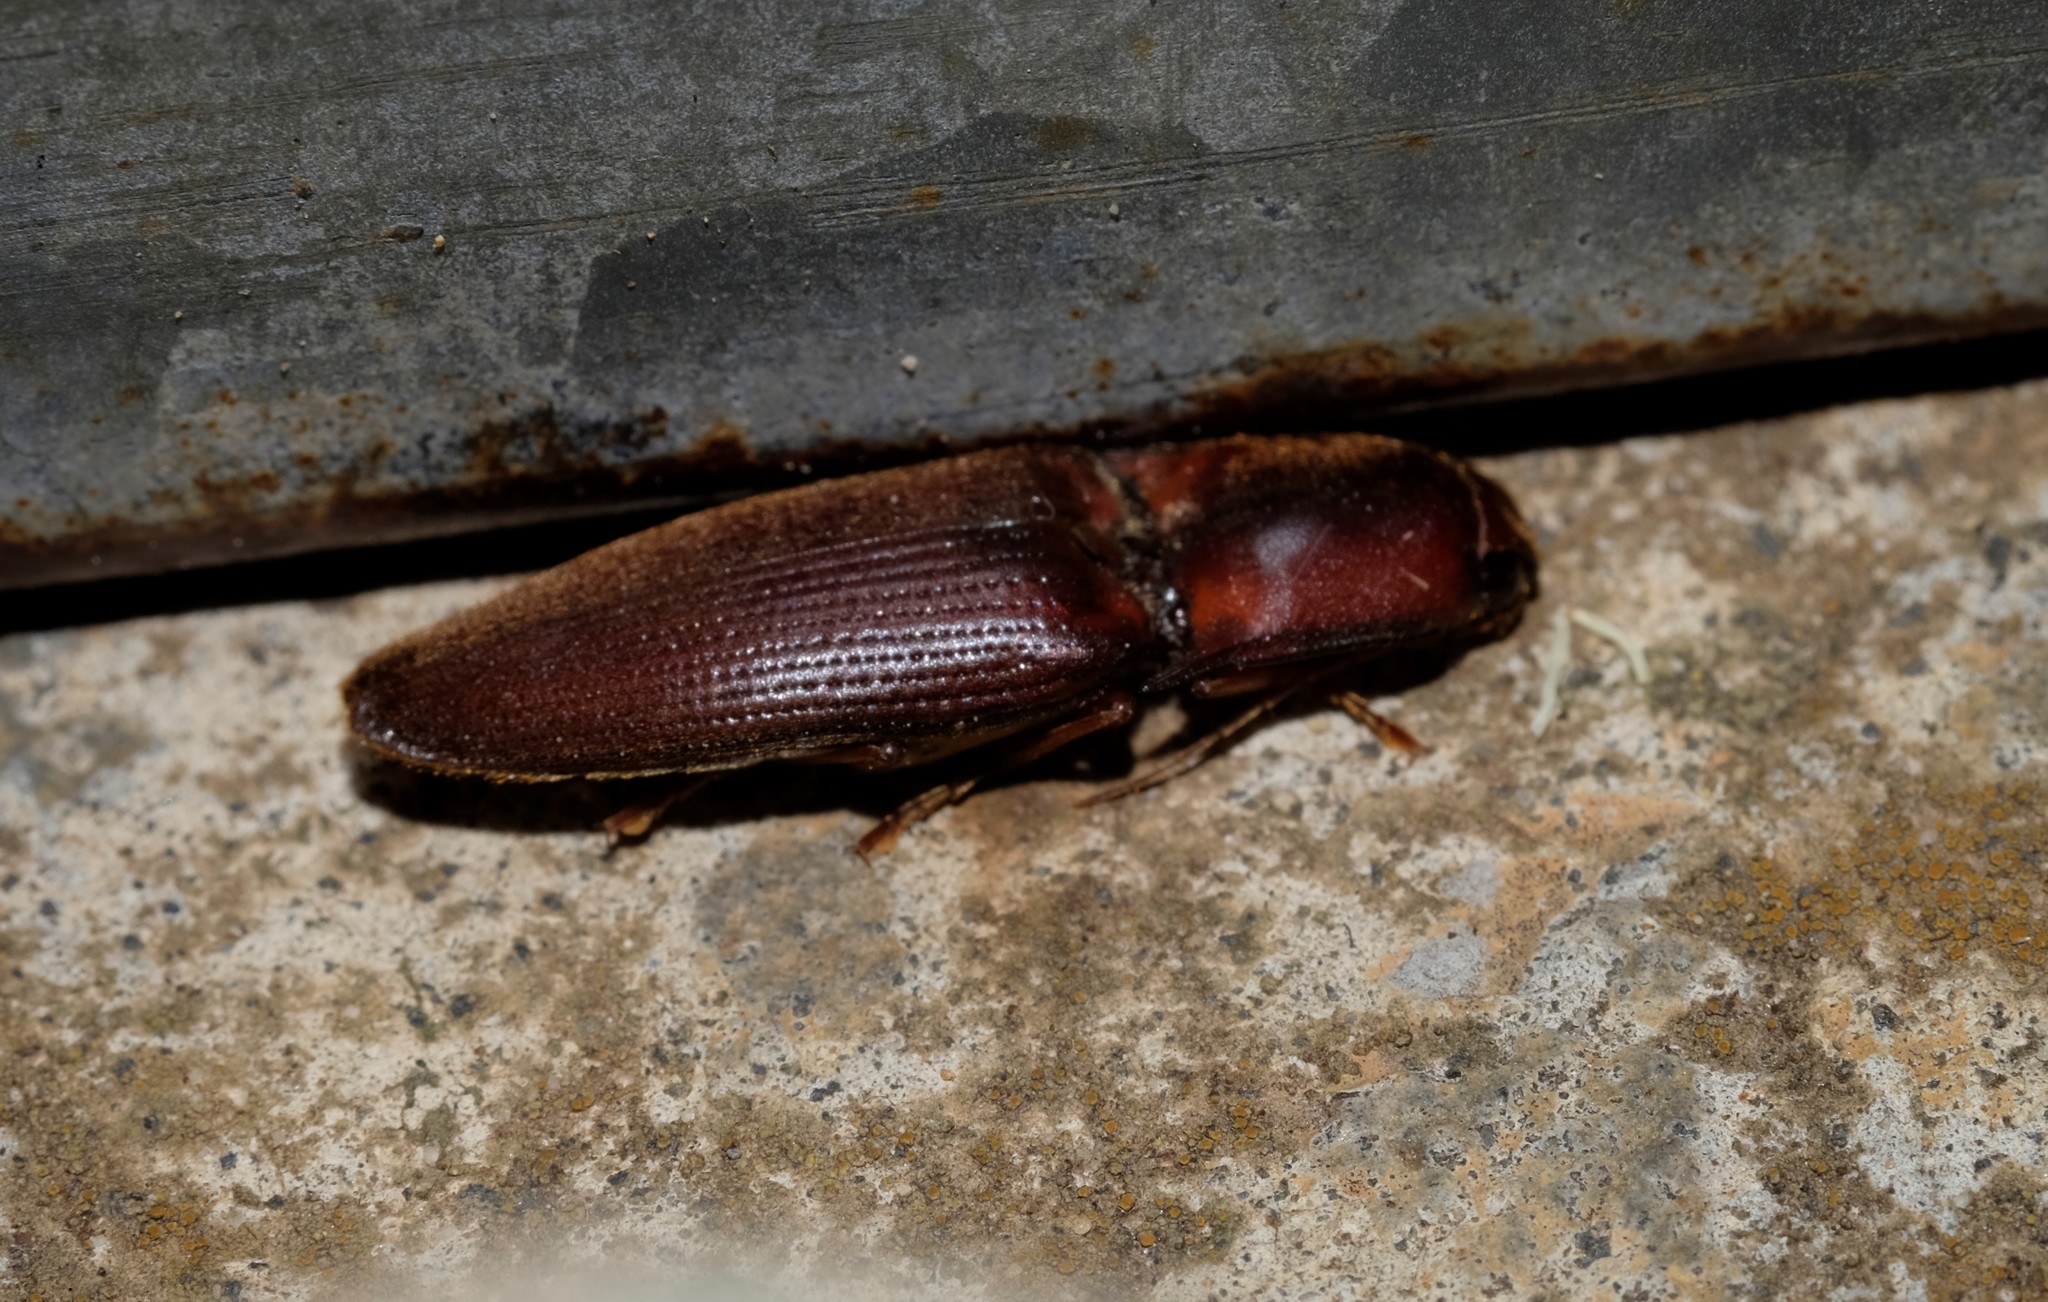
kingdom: Animalia
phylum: Arthropoda
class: Insecta
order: Coleoptera
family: Elateridae
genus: Monocrepidius
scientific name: Monocrepidius
